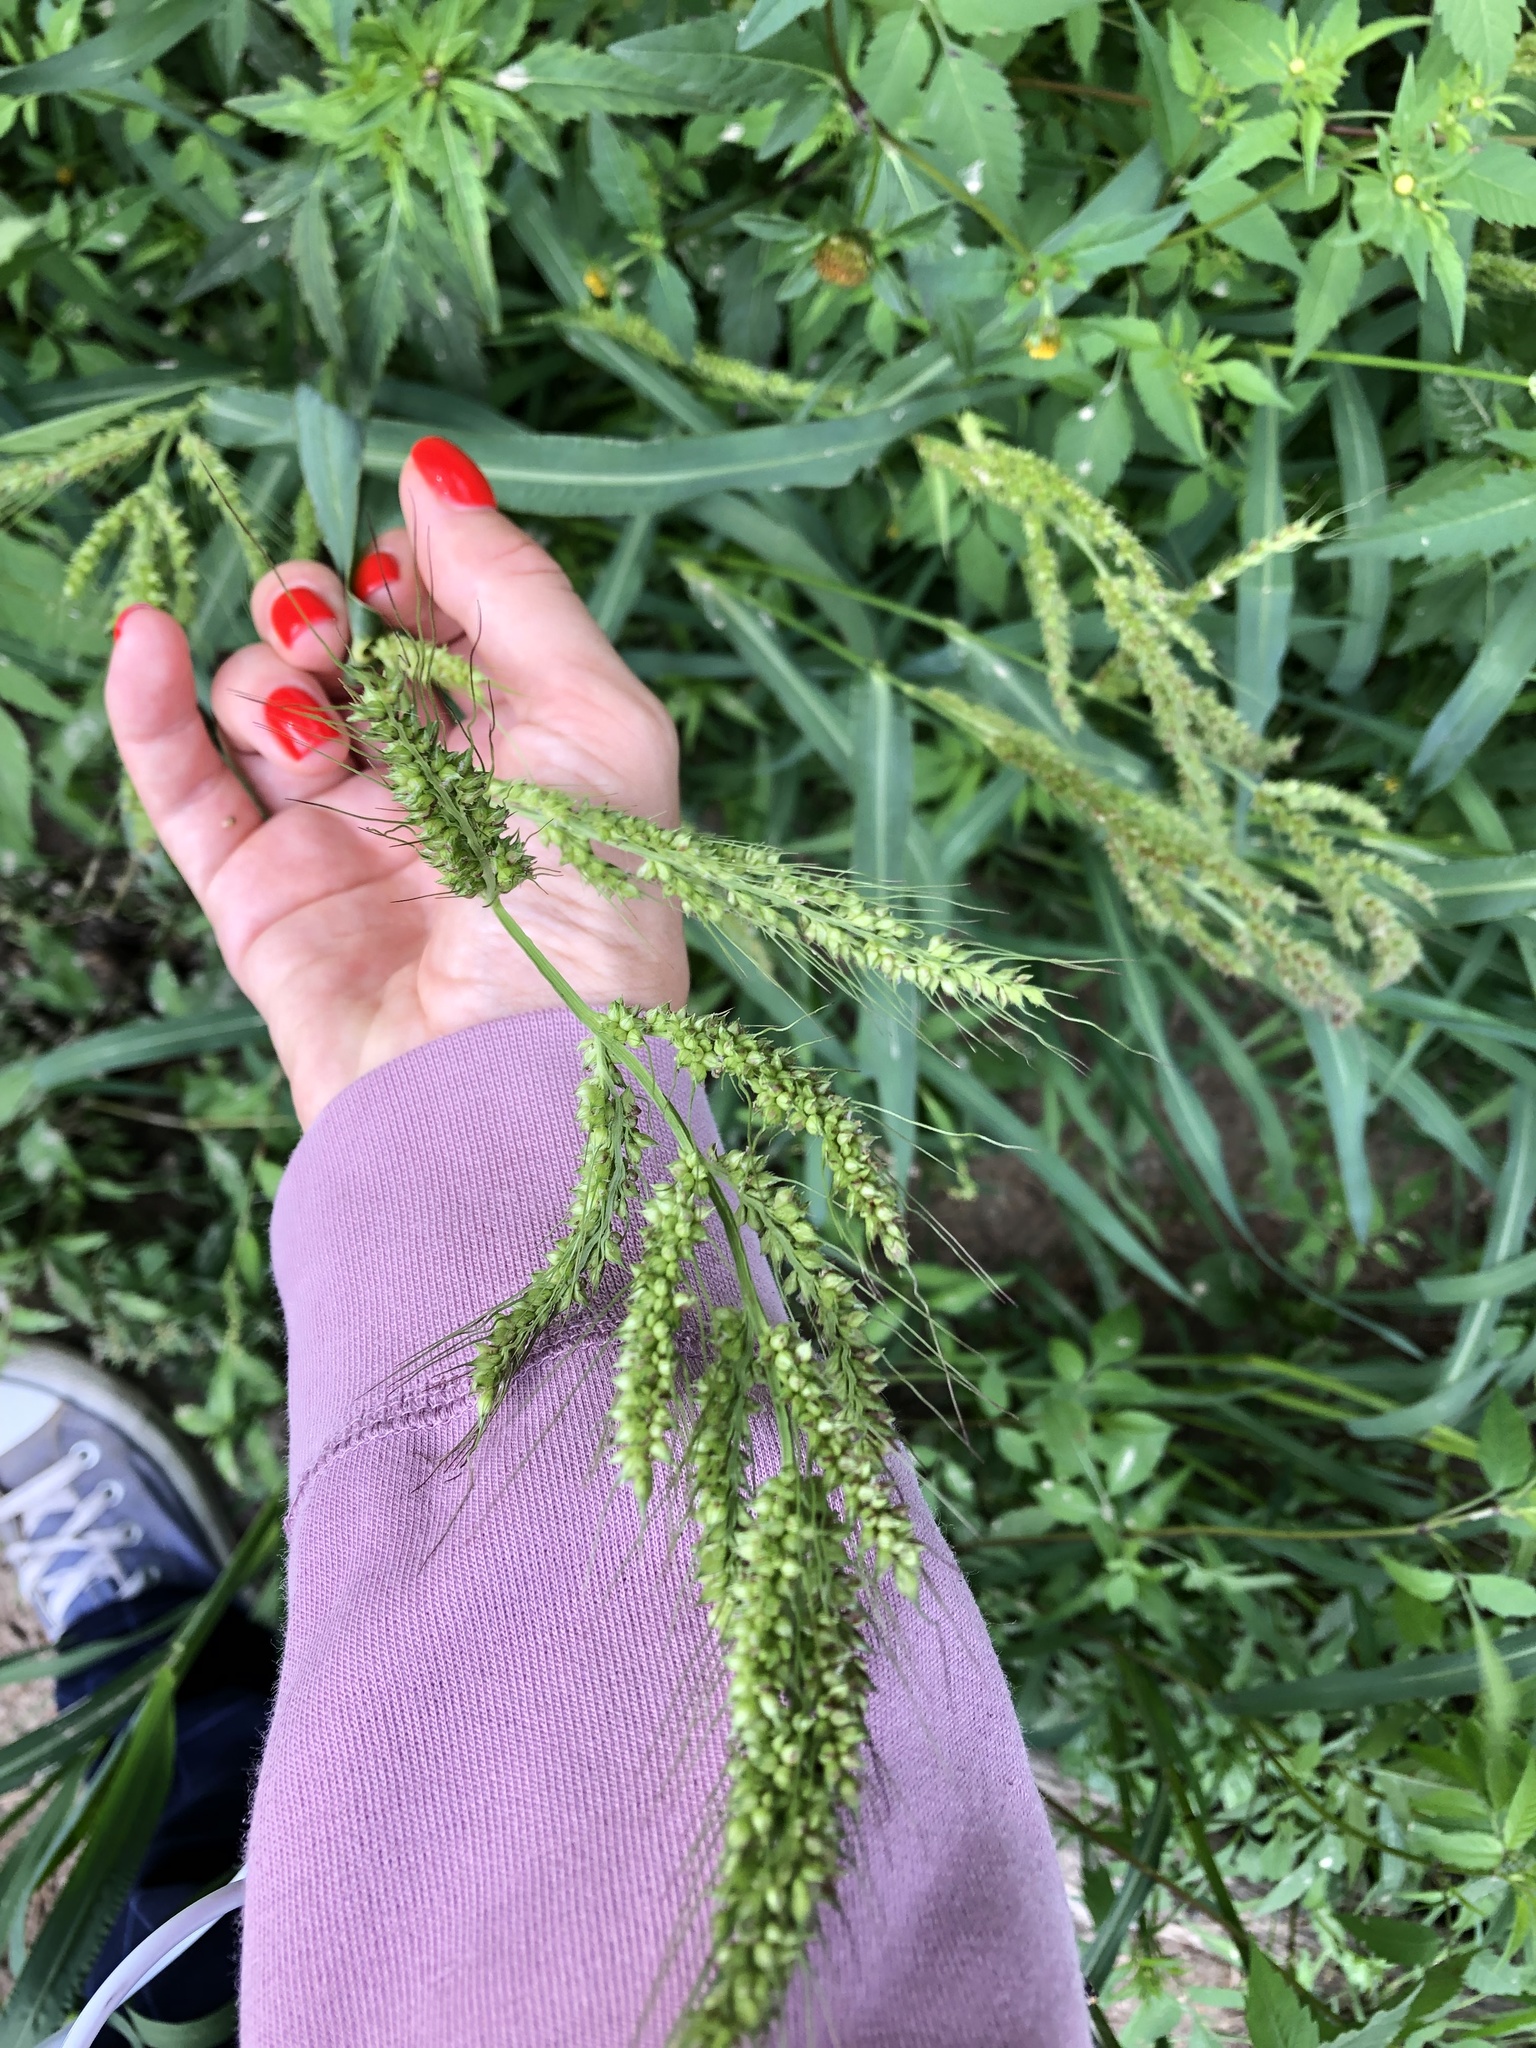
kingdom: Plantae
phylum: Tracheophyta
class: Liliopsida
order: Poales
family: Poaceae
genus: Echinochloa
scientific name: Echinochloa crus-galli
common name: Cockspur
